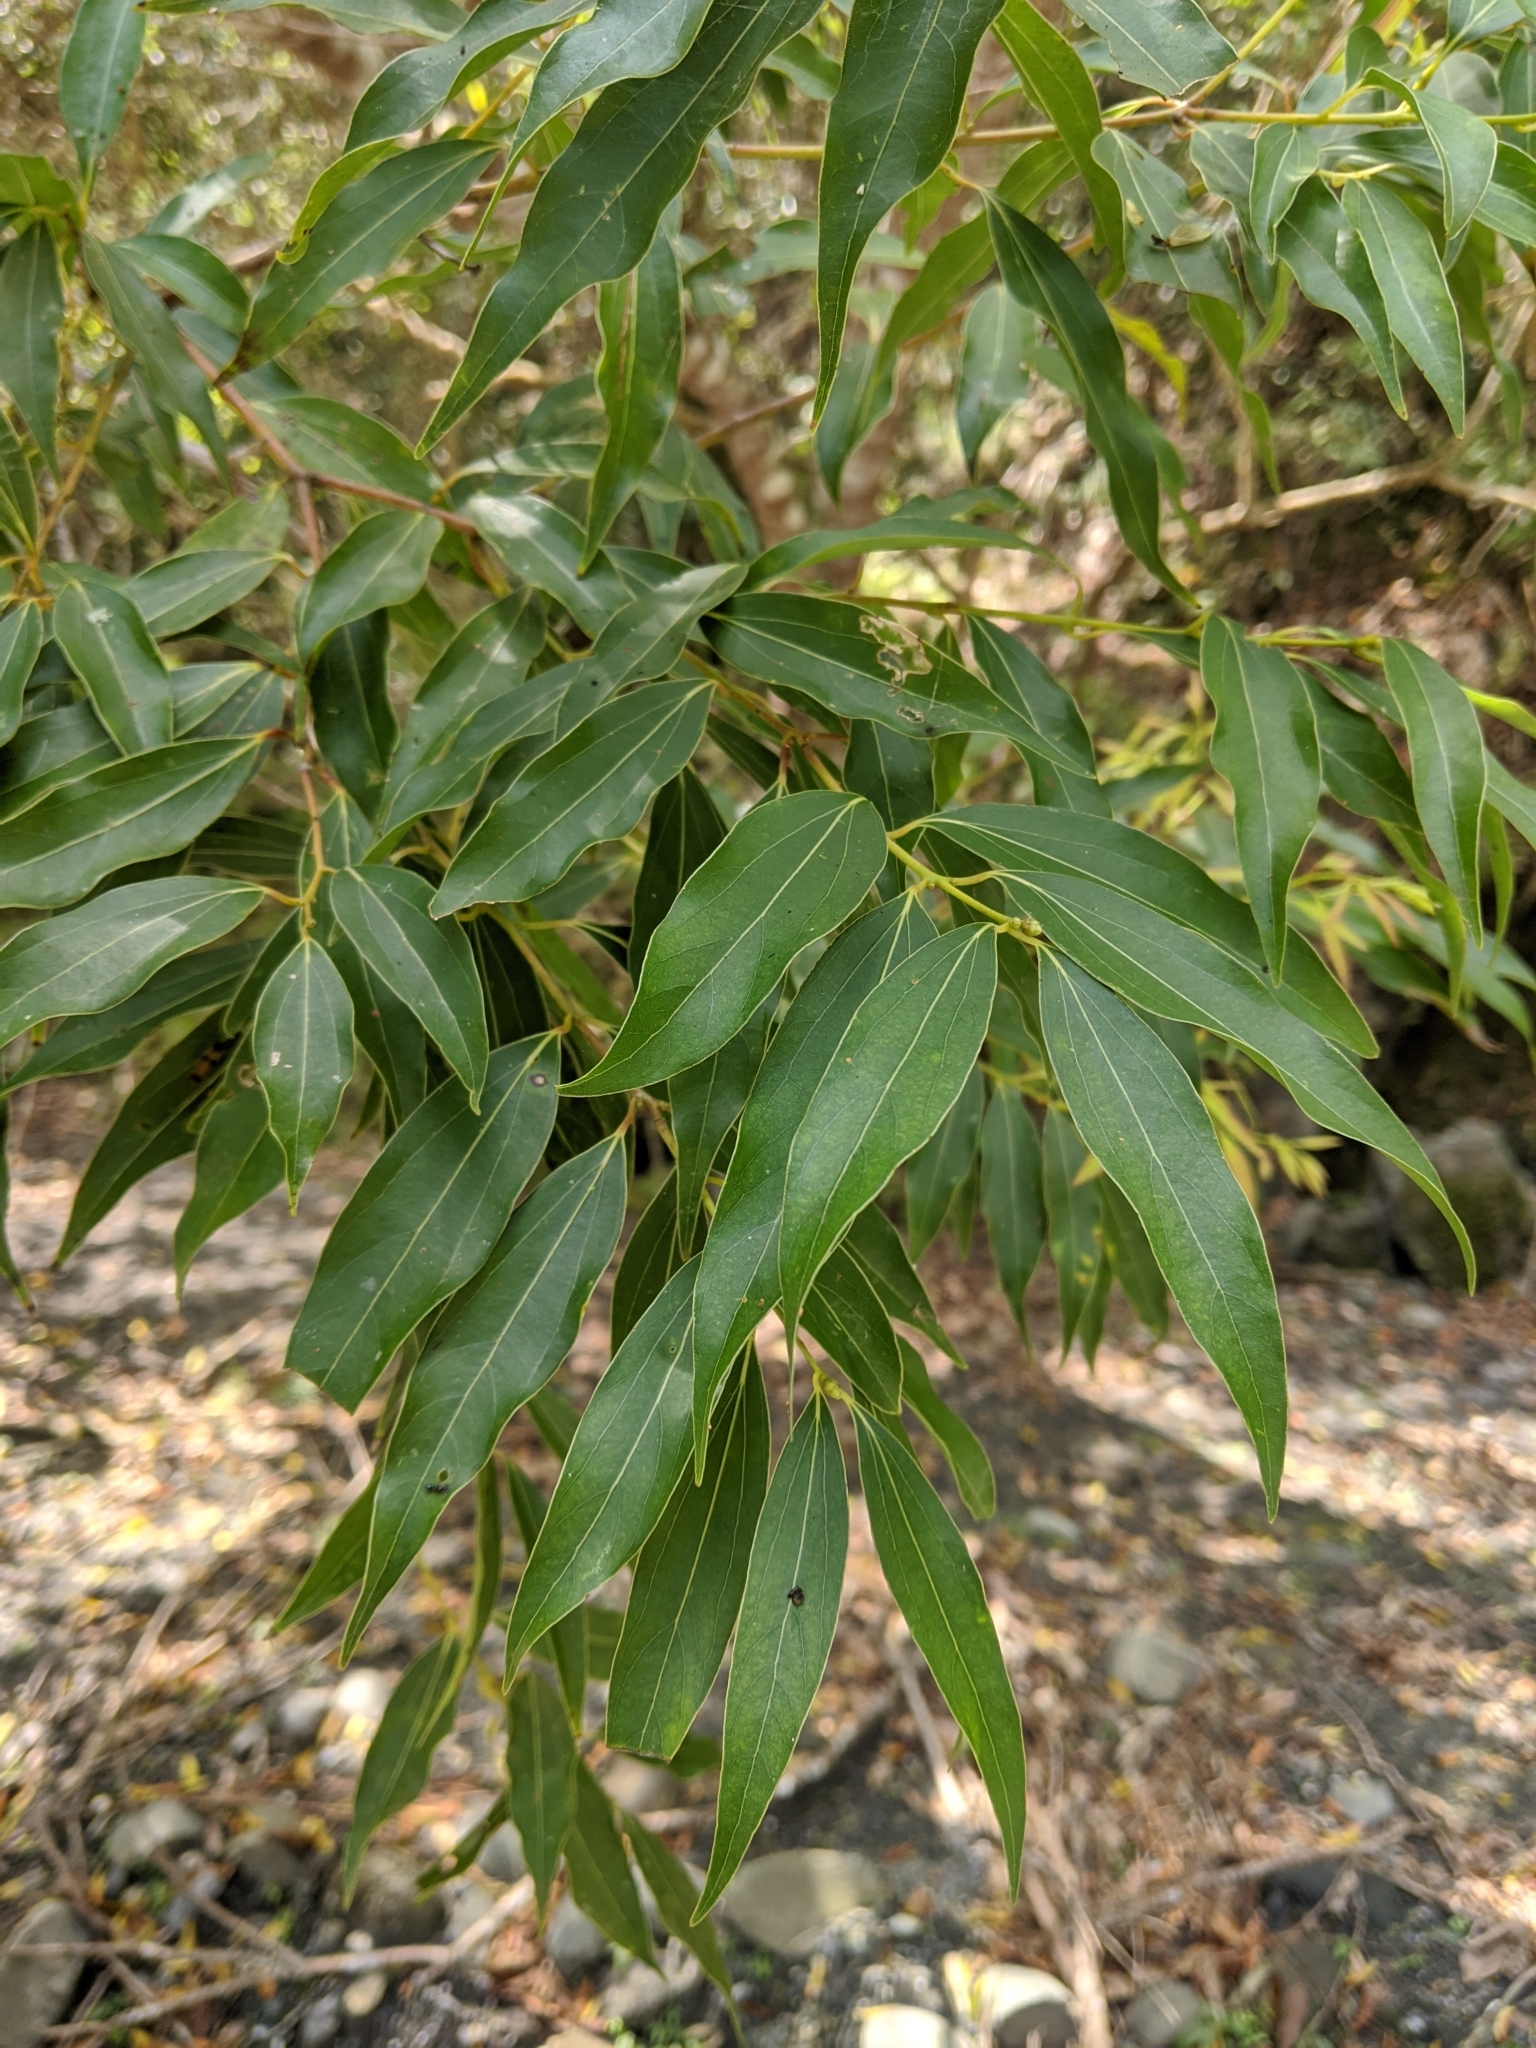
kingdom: Plantae
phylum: Tracheophyta
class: Magnoliopsida
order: Laurales
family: Lauraceae
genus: Cinnamomum
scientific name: Cinnamomum chekiangense
